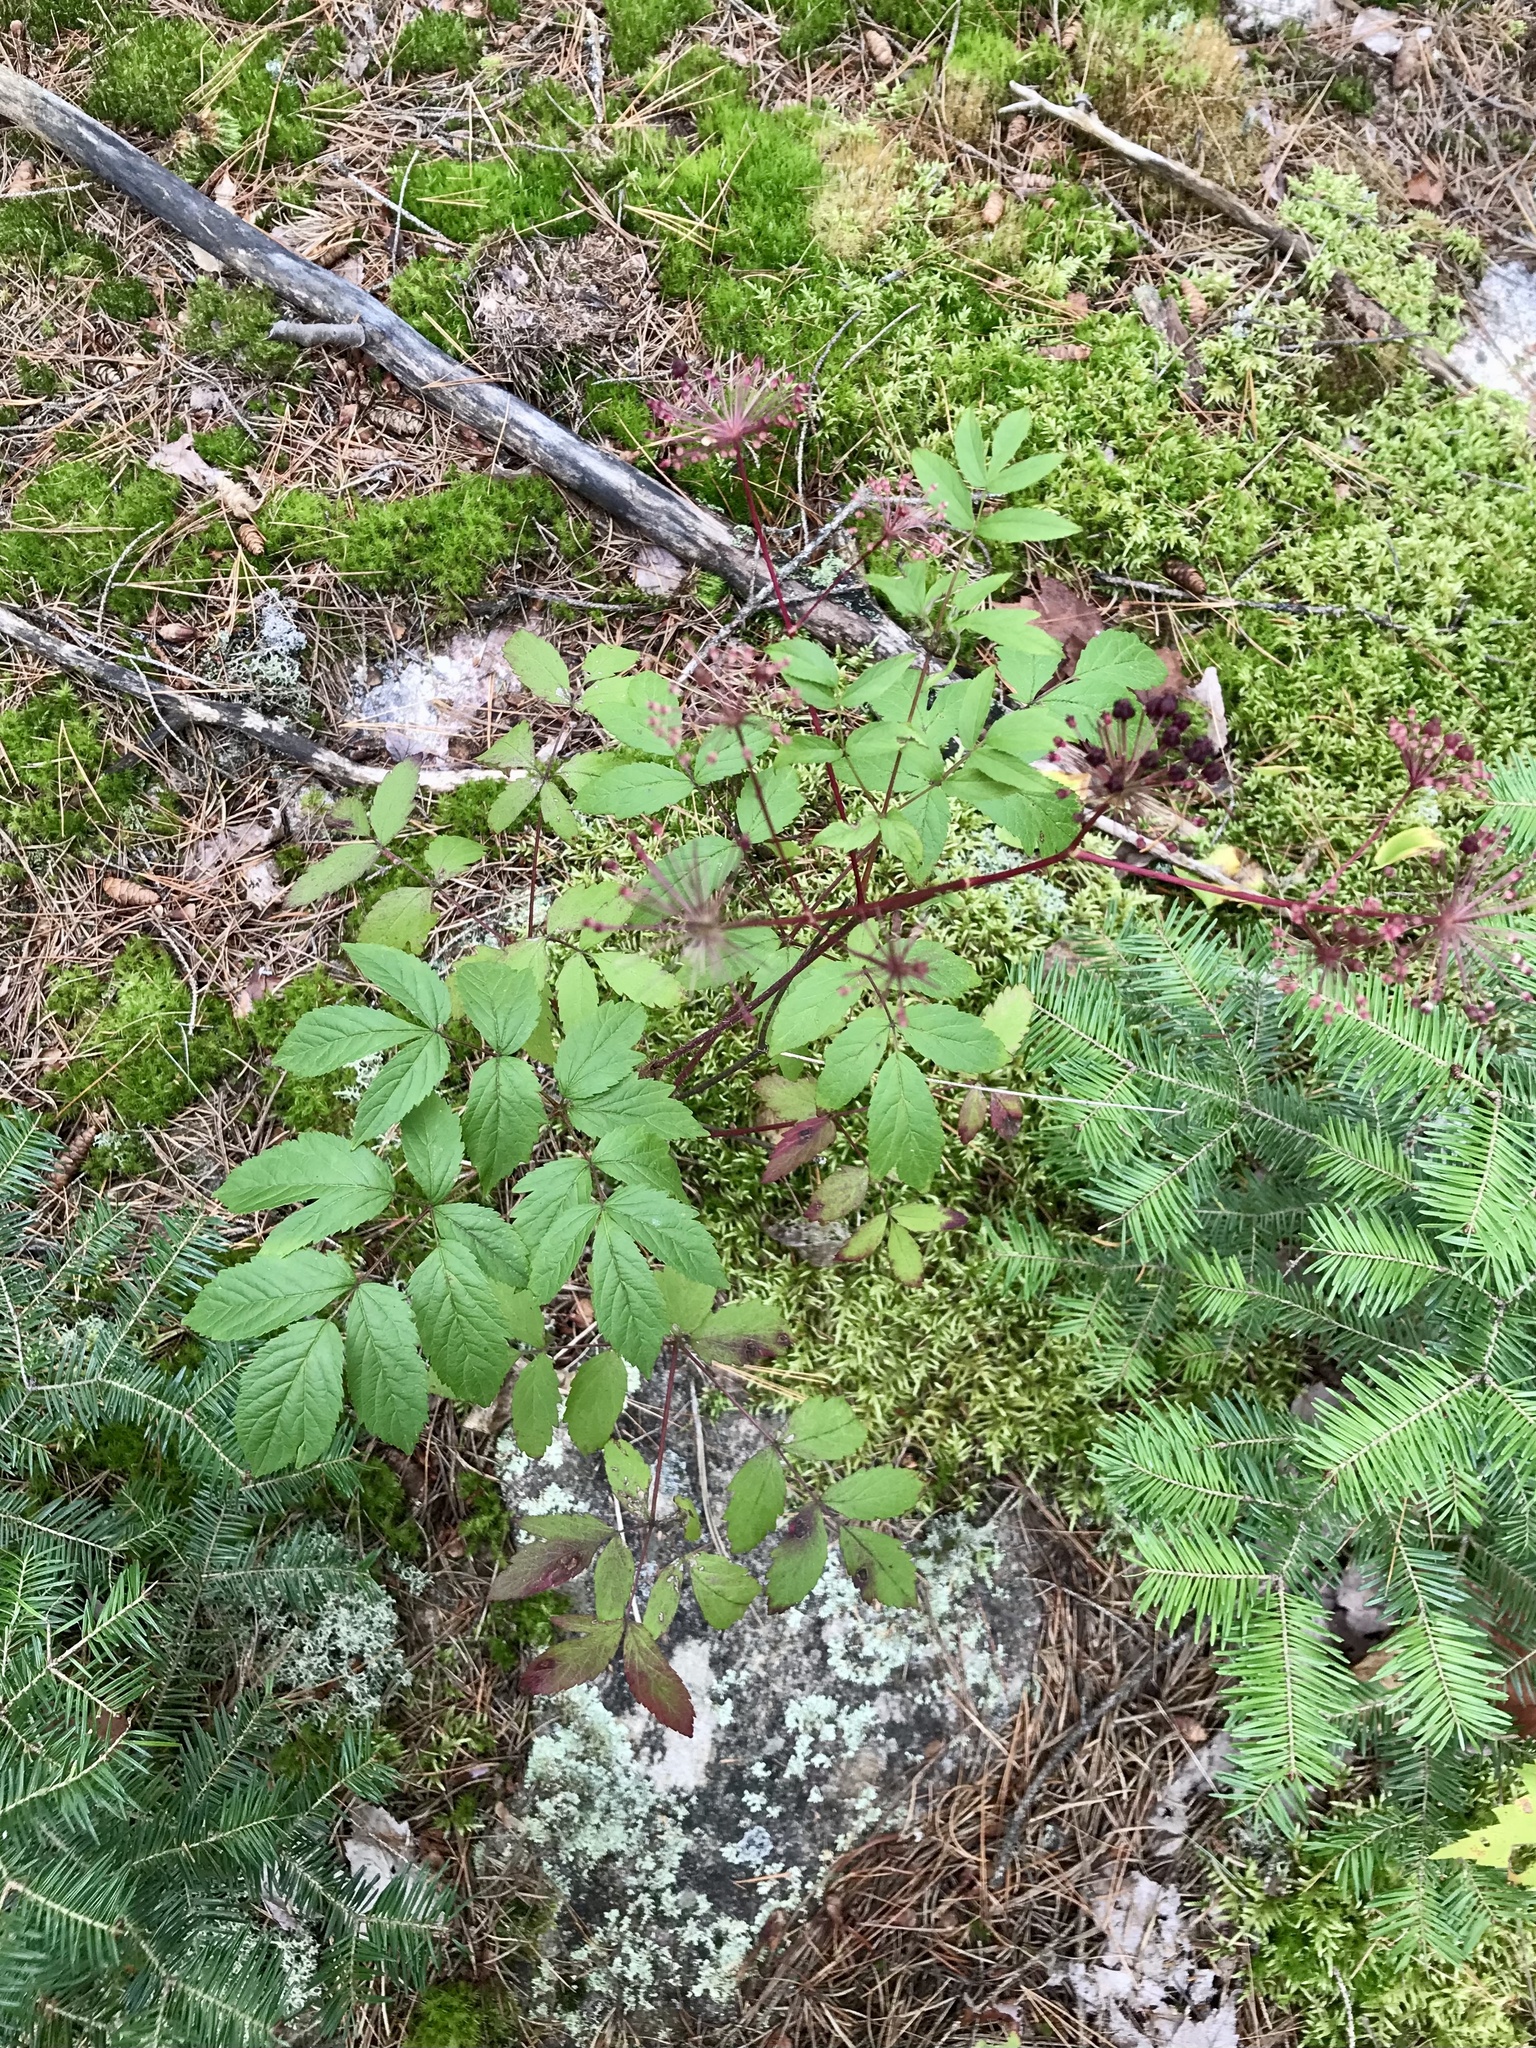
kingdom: Plantae
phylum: Tracheophyta
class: Magnoliopsida
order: Apiales
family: Araliaceae
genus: Aralia
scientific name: Aralia hispida
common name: Bristly sarsaparilla
